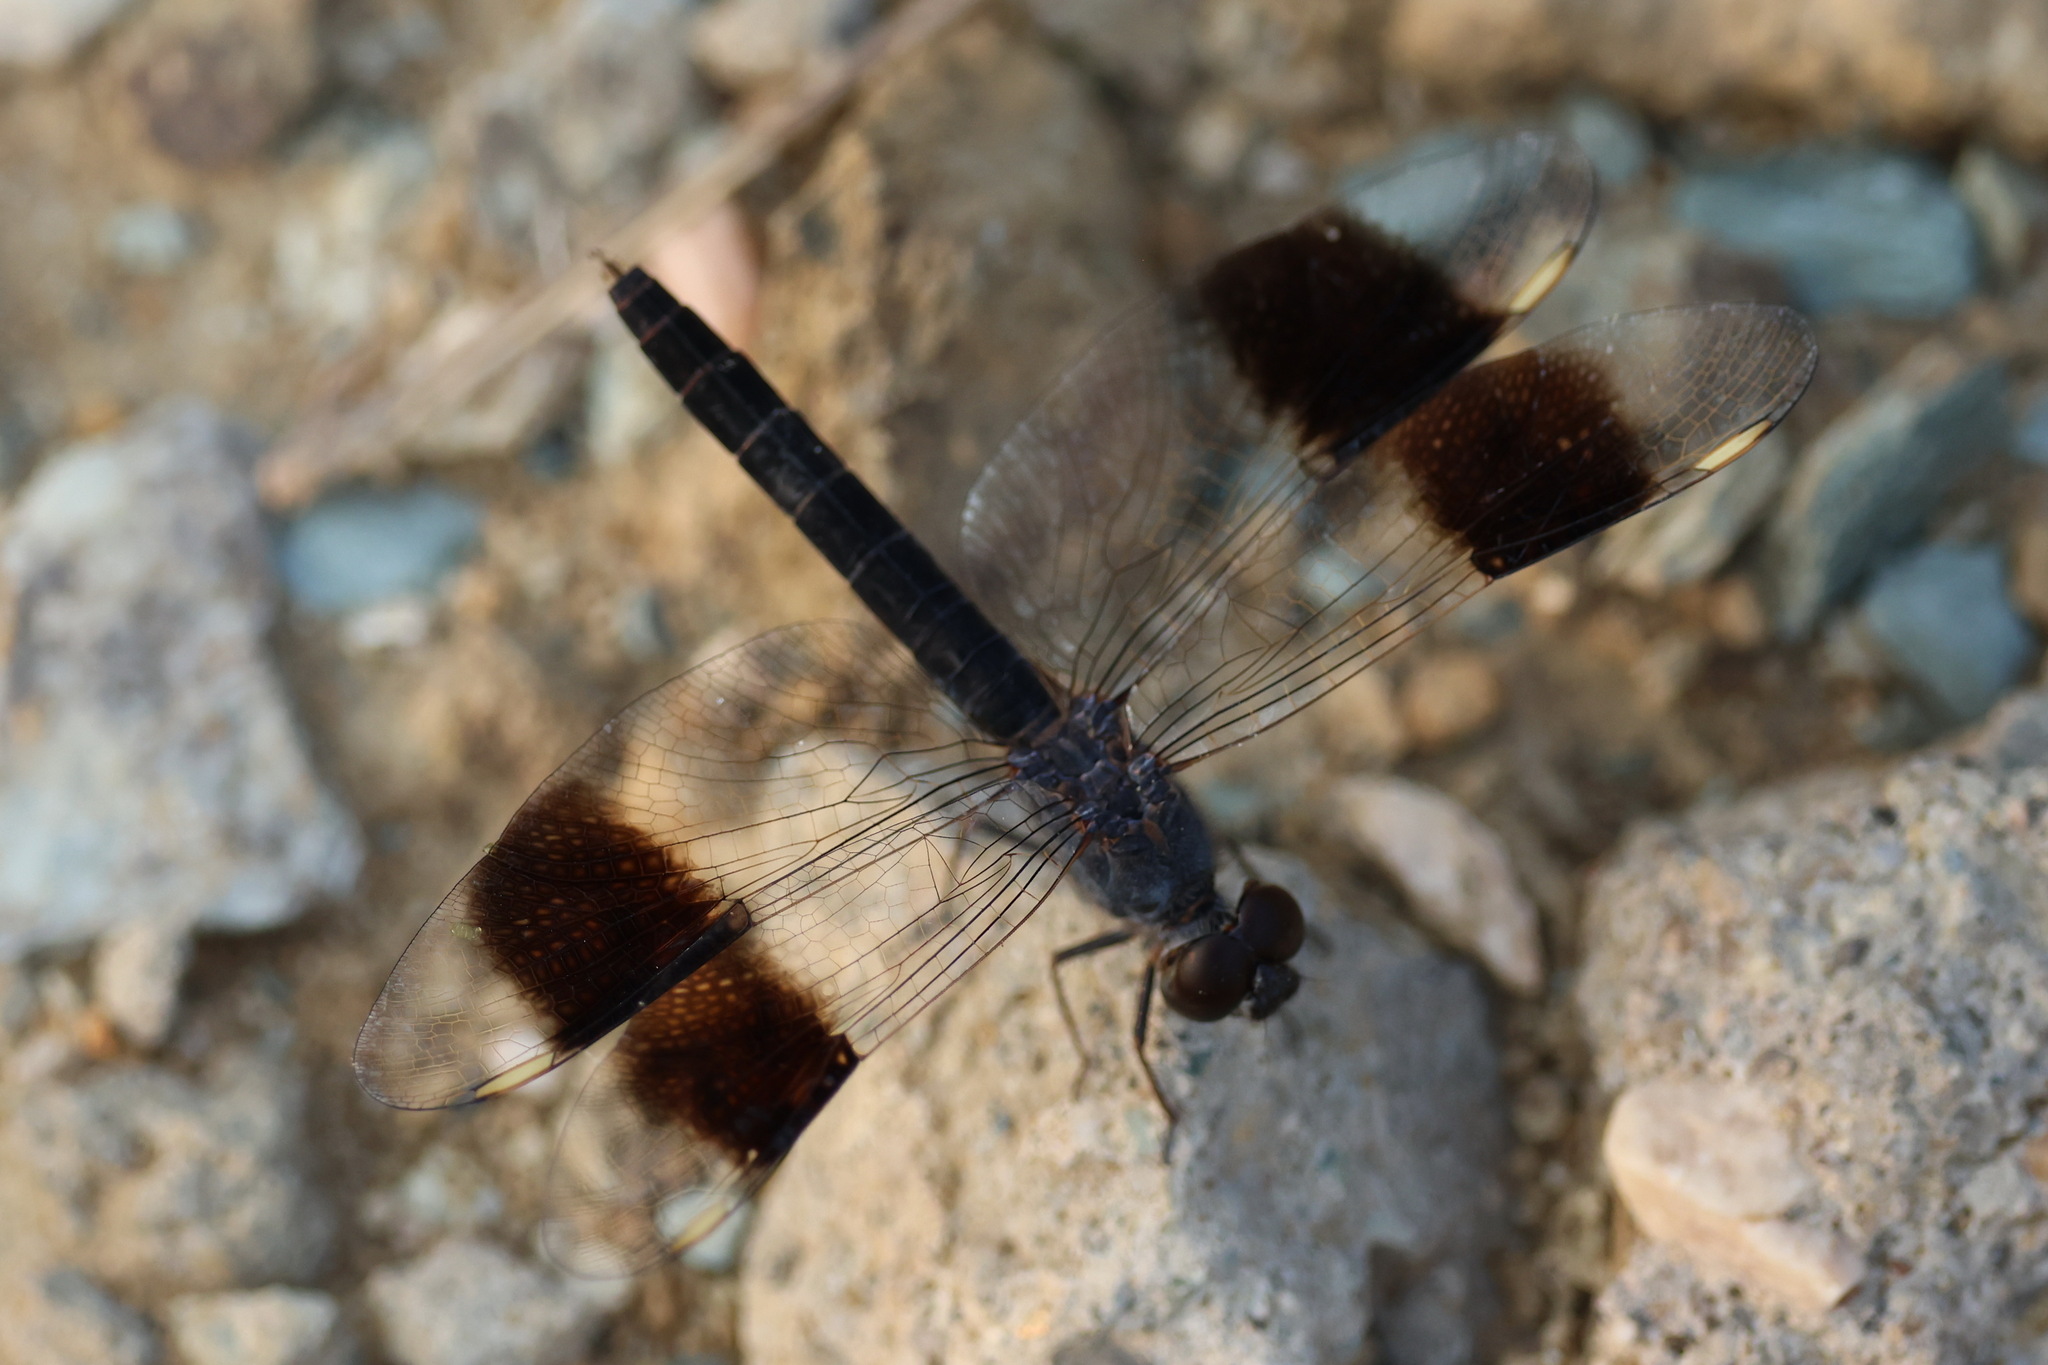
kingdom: Animalia
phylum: Arthropoda
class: Insecta
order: Odonata
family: Libellulidae
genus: Brachythemis
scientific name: Brachythemis impartita
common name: Banded groundling
